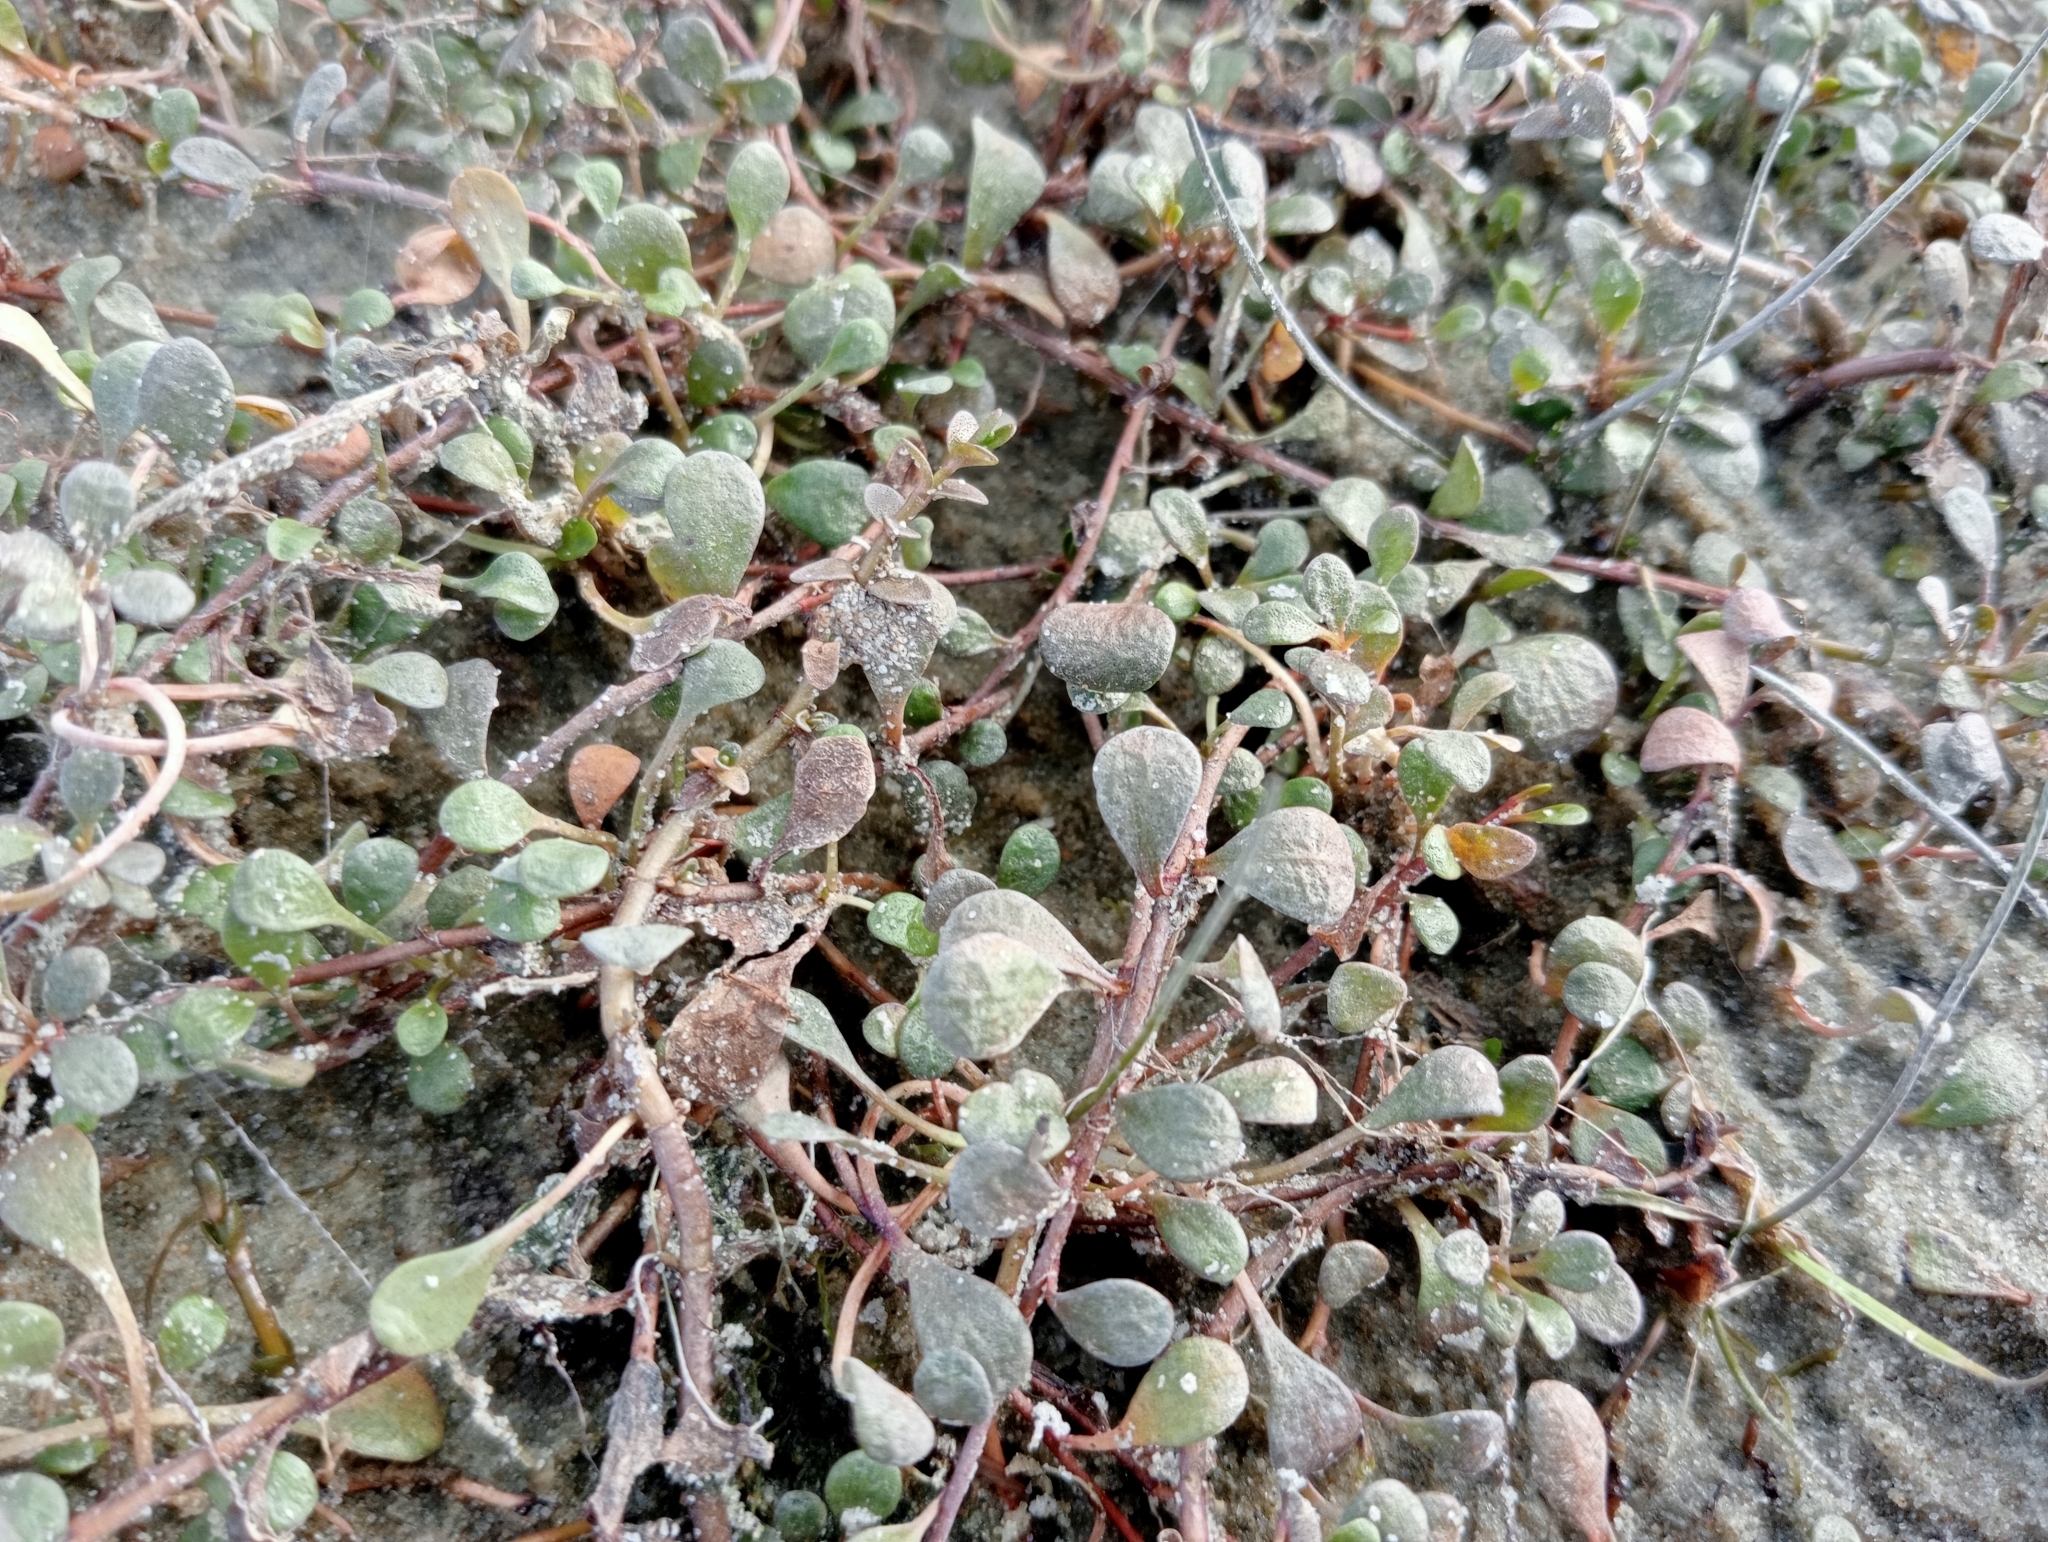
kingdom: Plantae
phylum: Tracheophyta
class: Magnoliopsida
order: Ericales
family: Primulaceae
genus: Samolus
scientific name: Samolus repens
